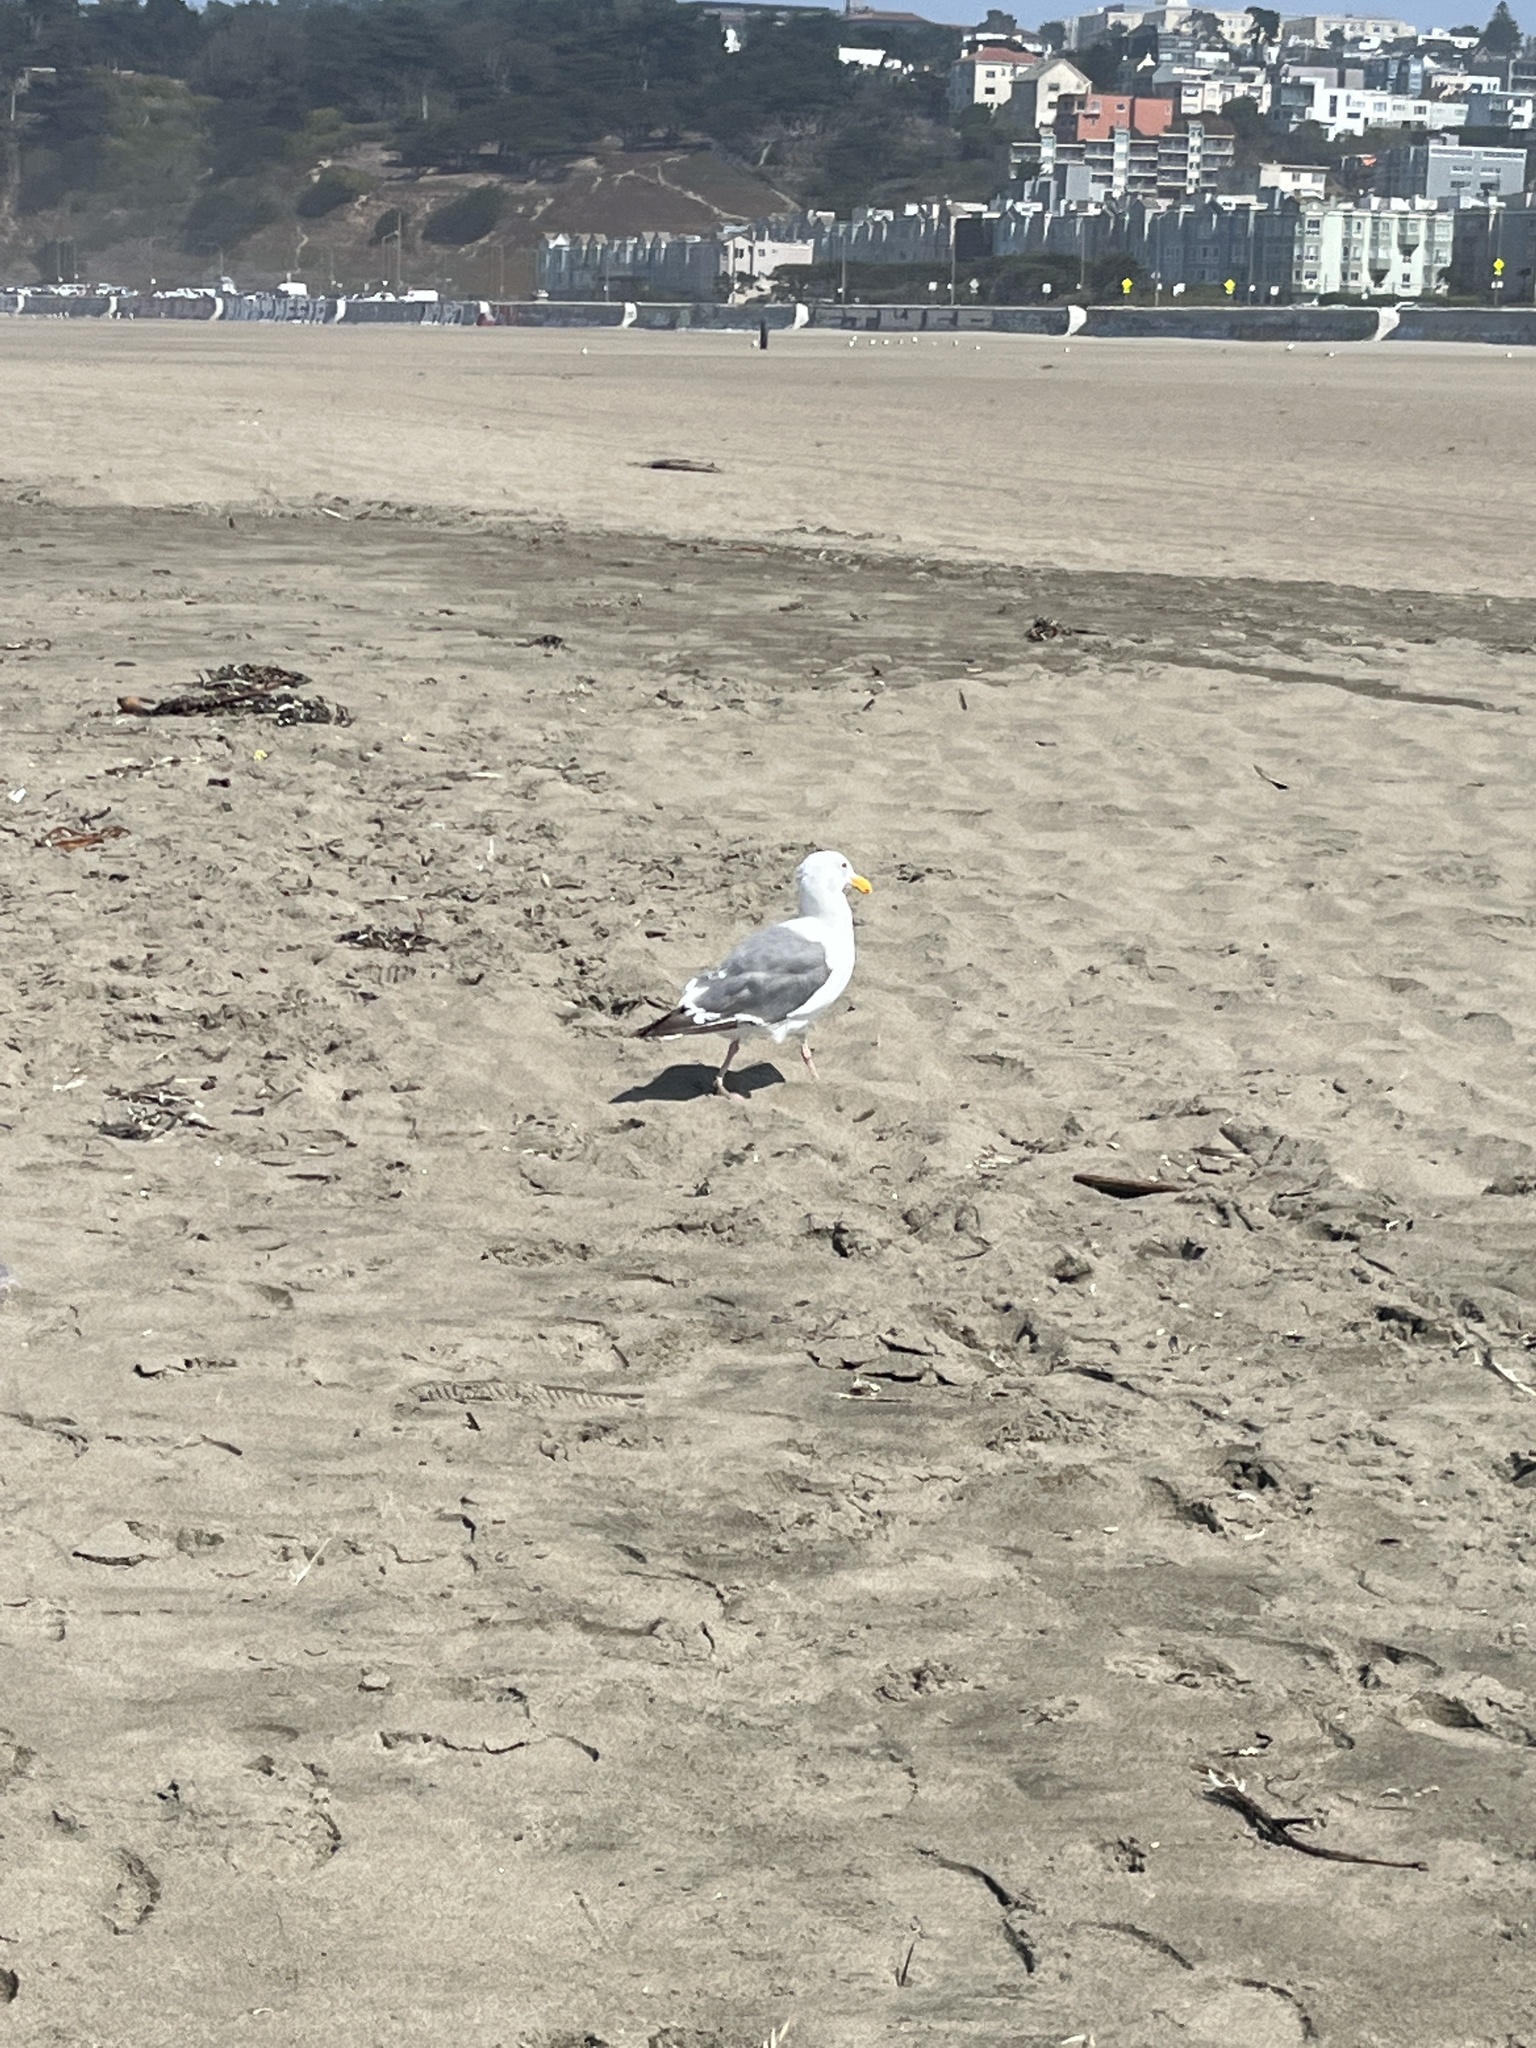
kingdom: Animalia
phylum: Chordata
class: Aves
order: Charadriiformes
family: Laridae
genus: Larus
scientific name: Larus occidentalis
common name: Western gull
